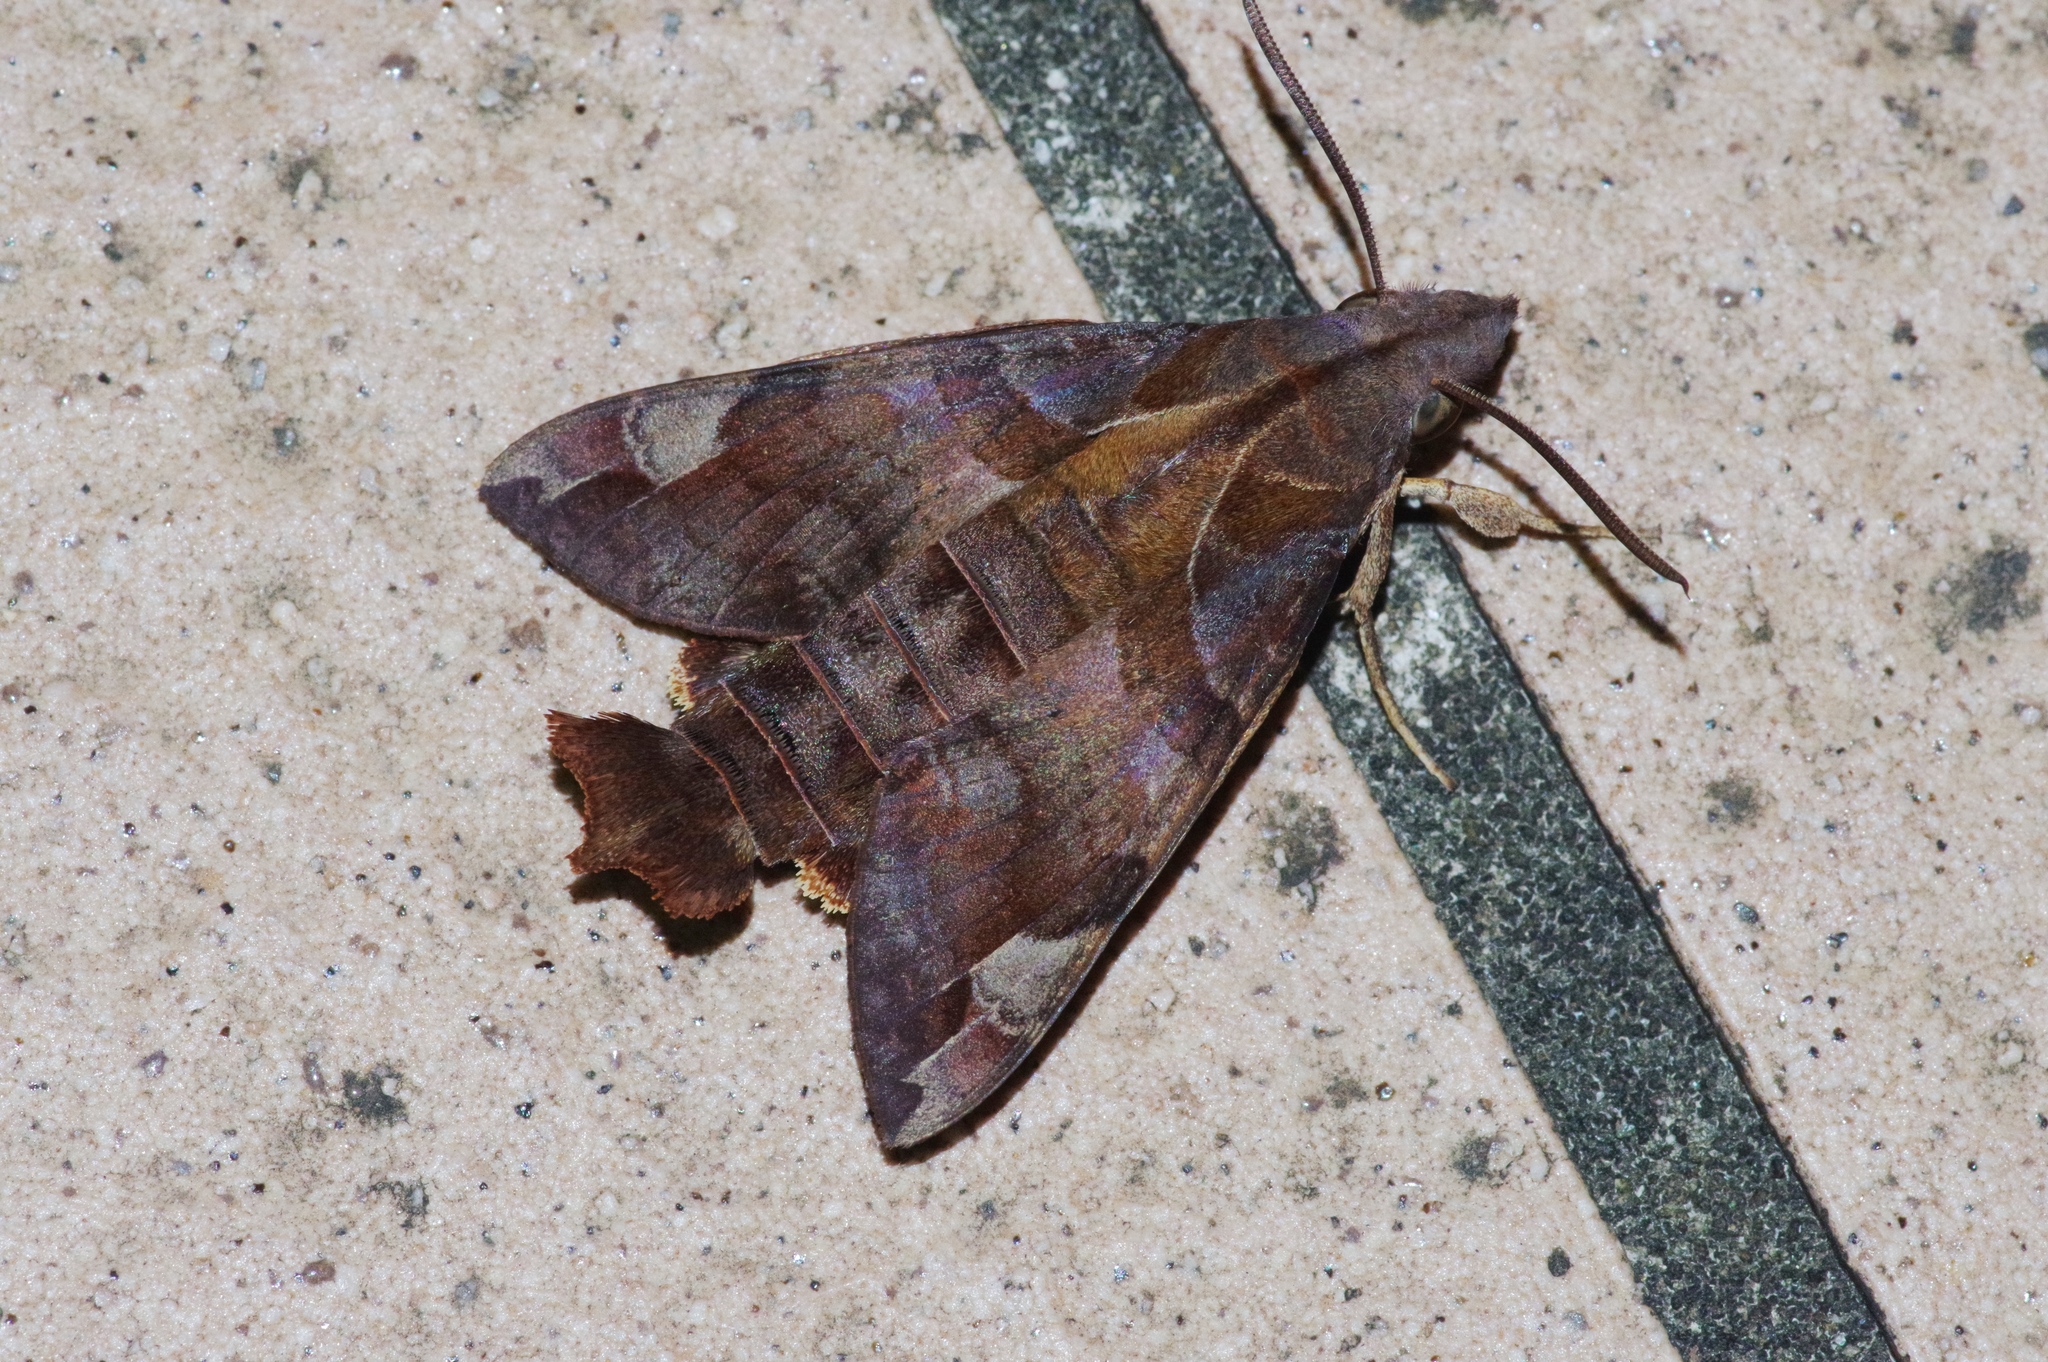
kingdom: Animalia
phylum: Arthropoda
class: Insecta
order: Lepidoptera
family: Sphingidae
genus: Macroglossum
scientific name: Macroglossum saga
